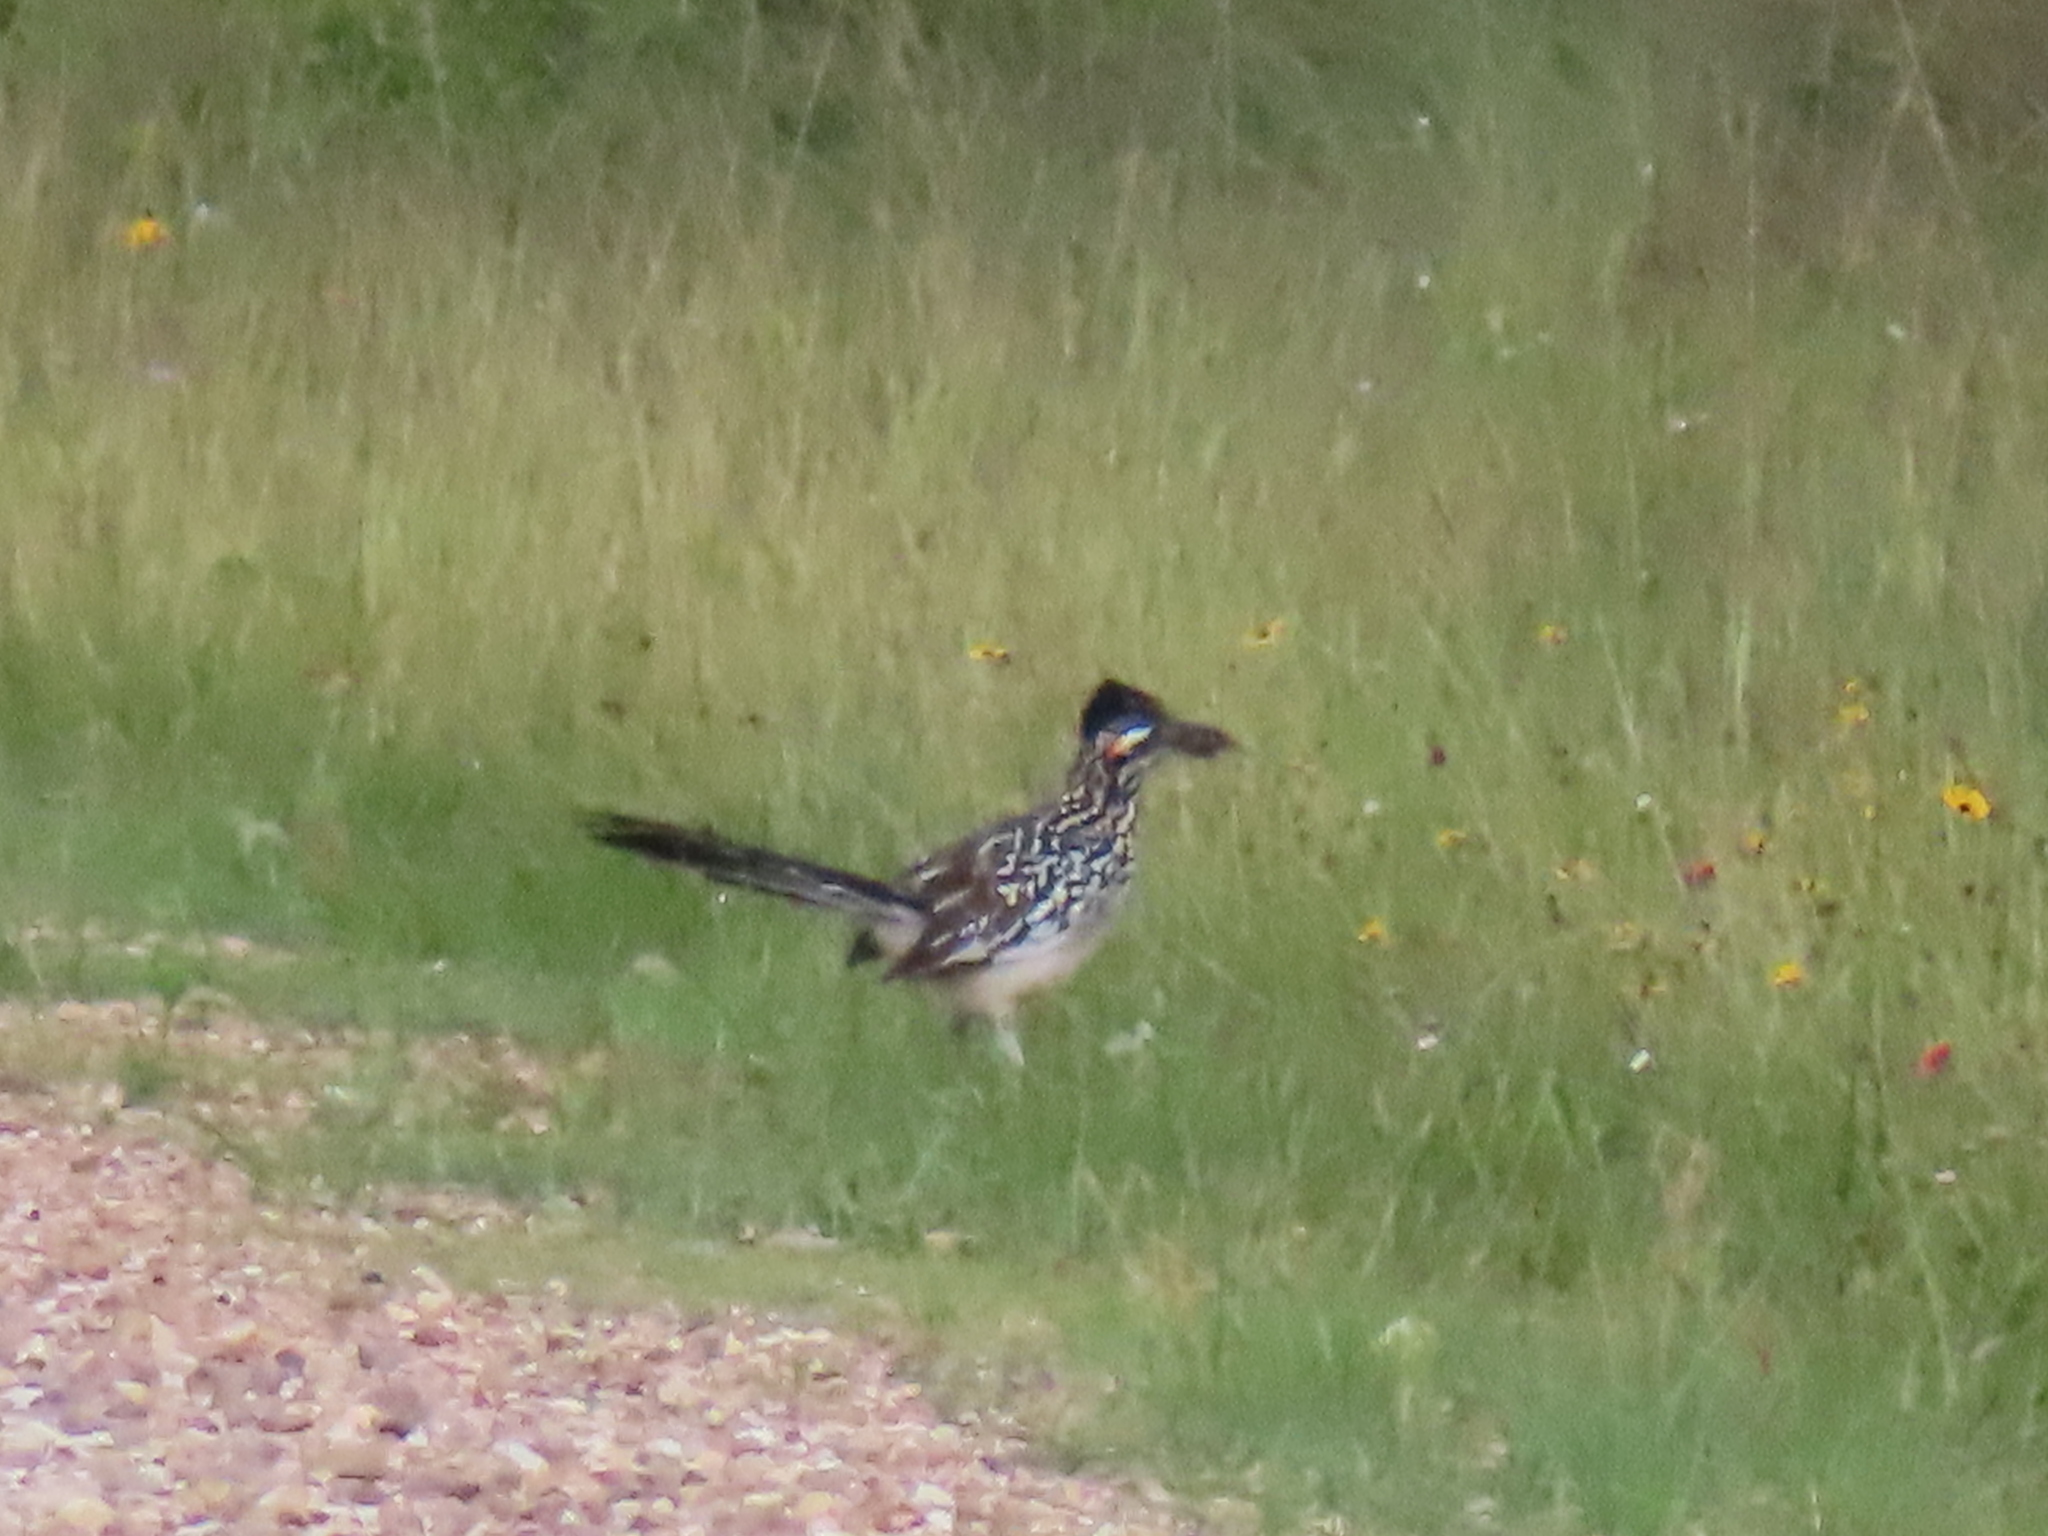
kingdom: Animalia
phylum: Chordata
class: Aves
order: Cuculiformes
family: Cuculidae
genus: Geococcyx
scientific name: Geococcyx californianus
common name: Greater roadrunner
